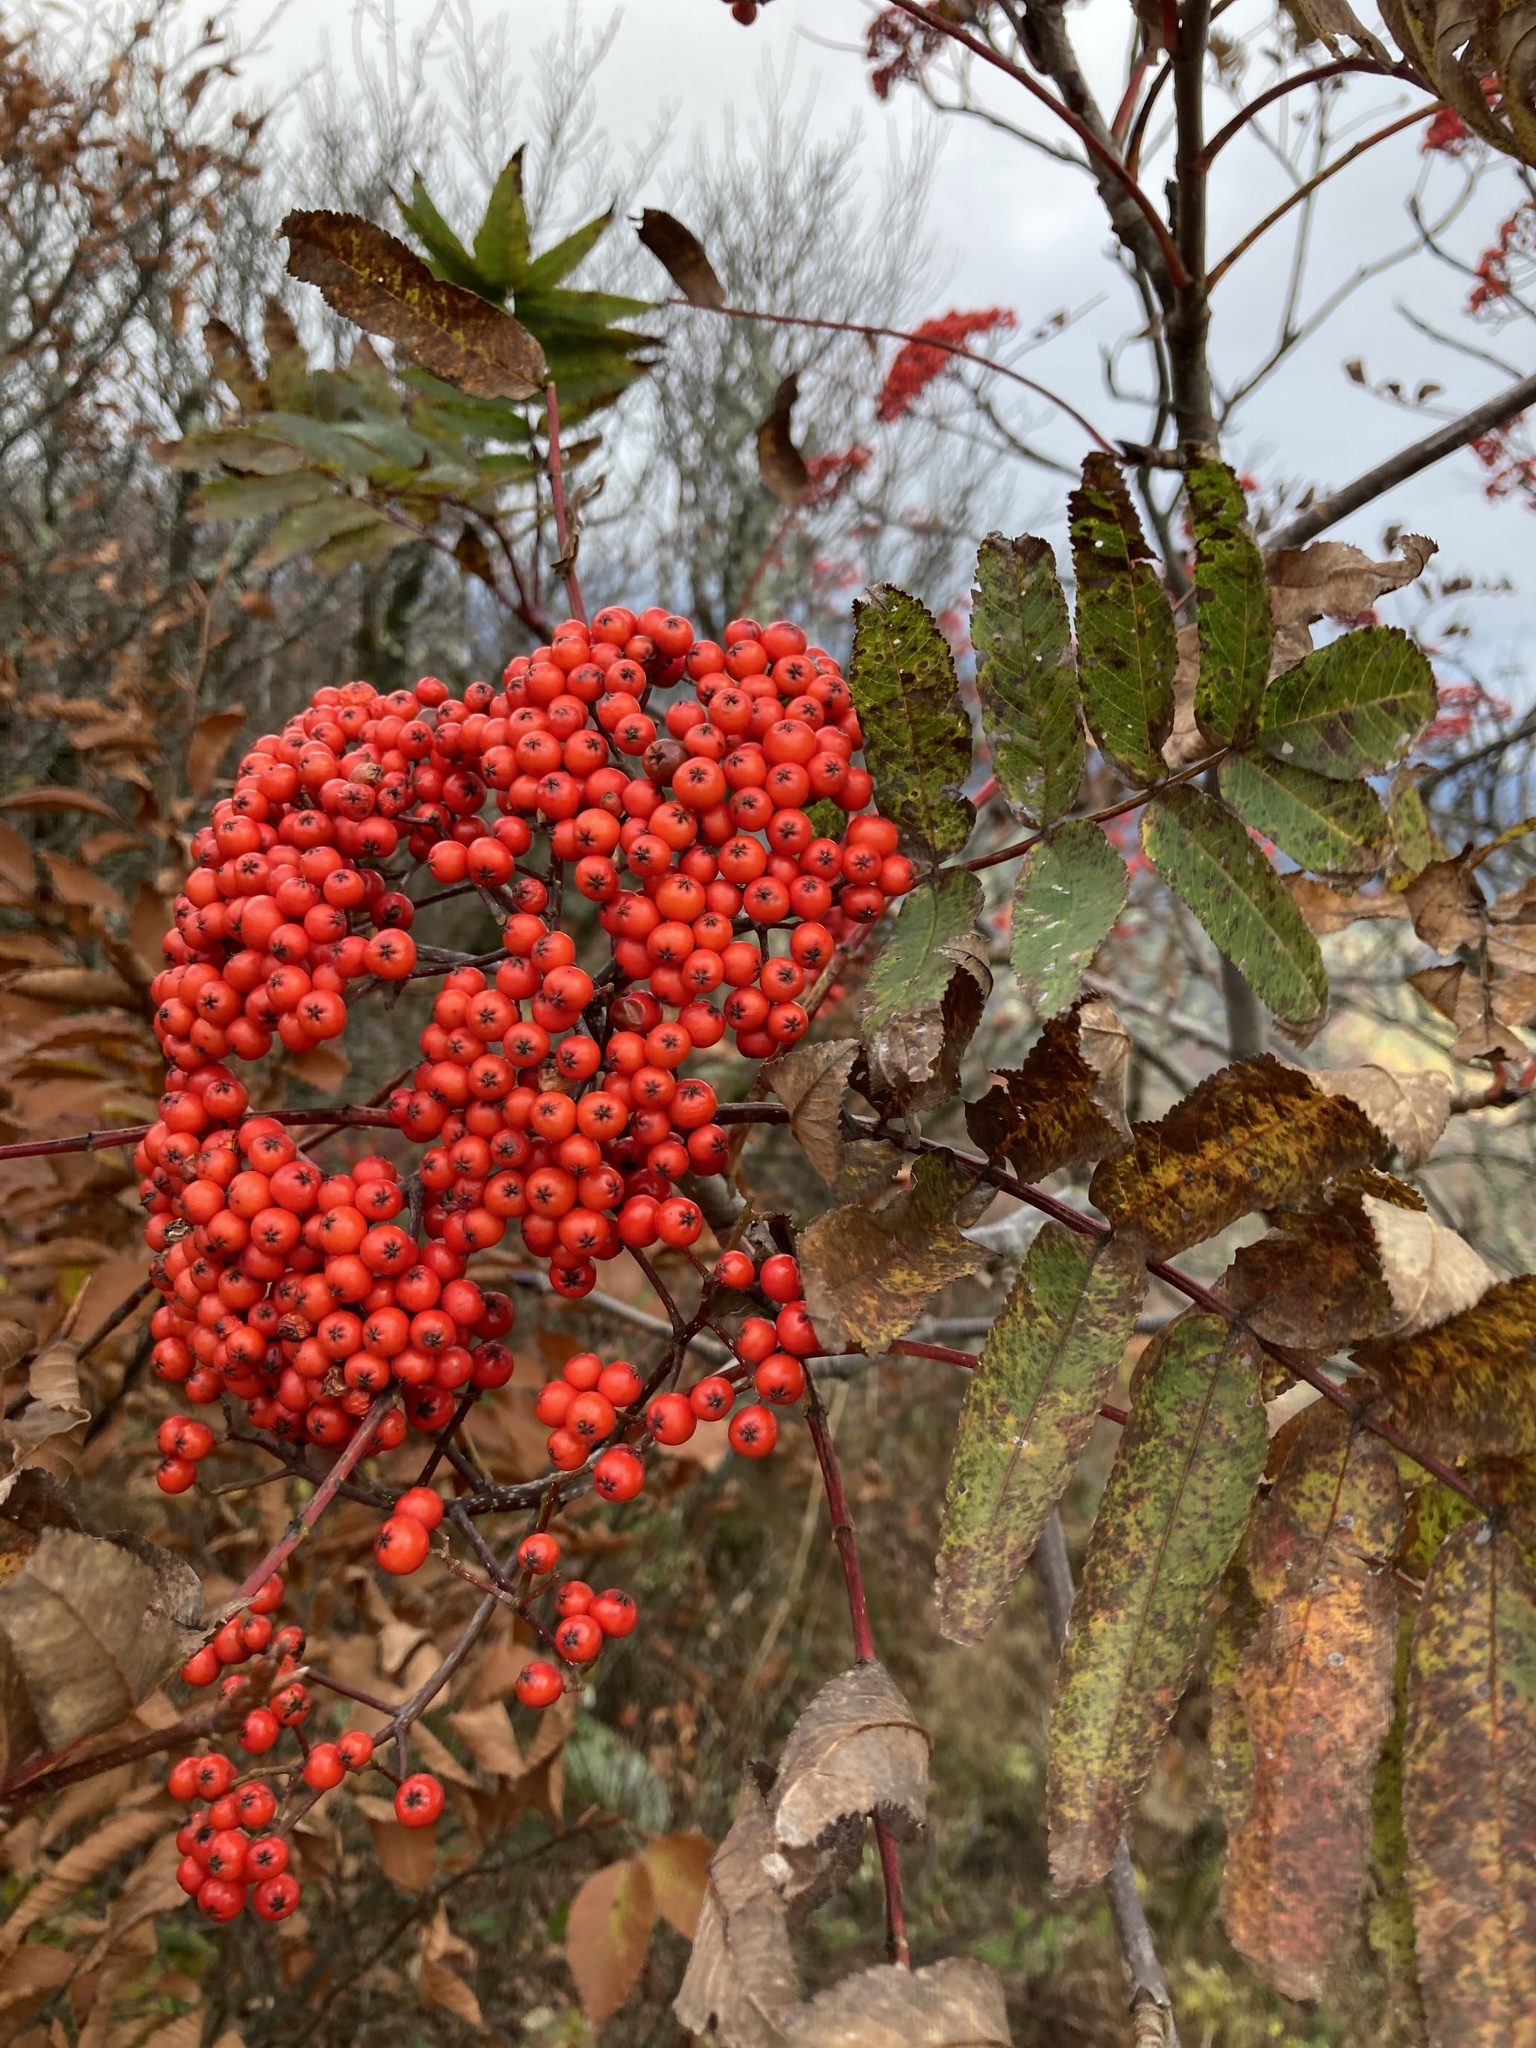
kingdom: Plantae
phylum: Tracheophyta
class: Magnoliopsida
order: Rosales
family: Rosaceae
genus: Sorbus
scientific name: Sorbus americana
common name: American mountain-ash
